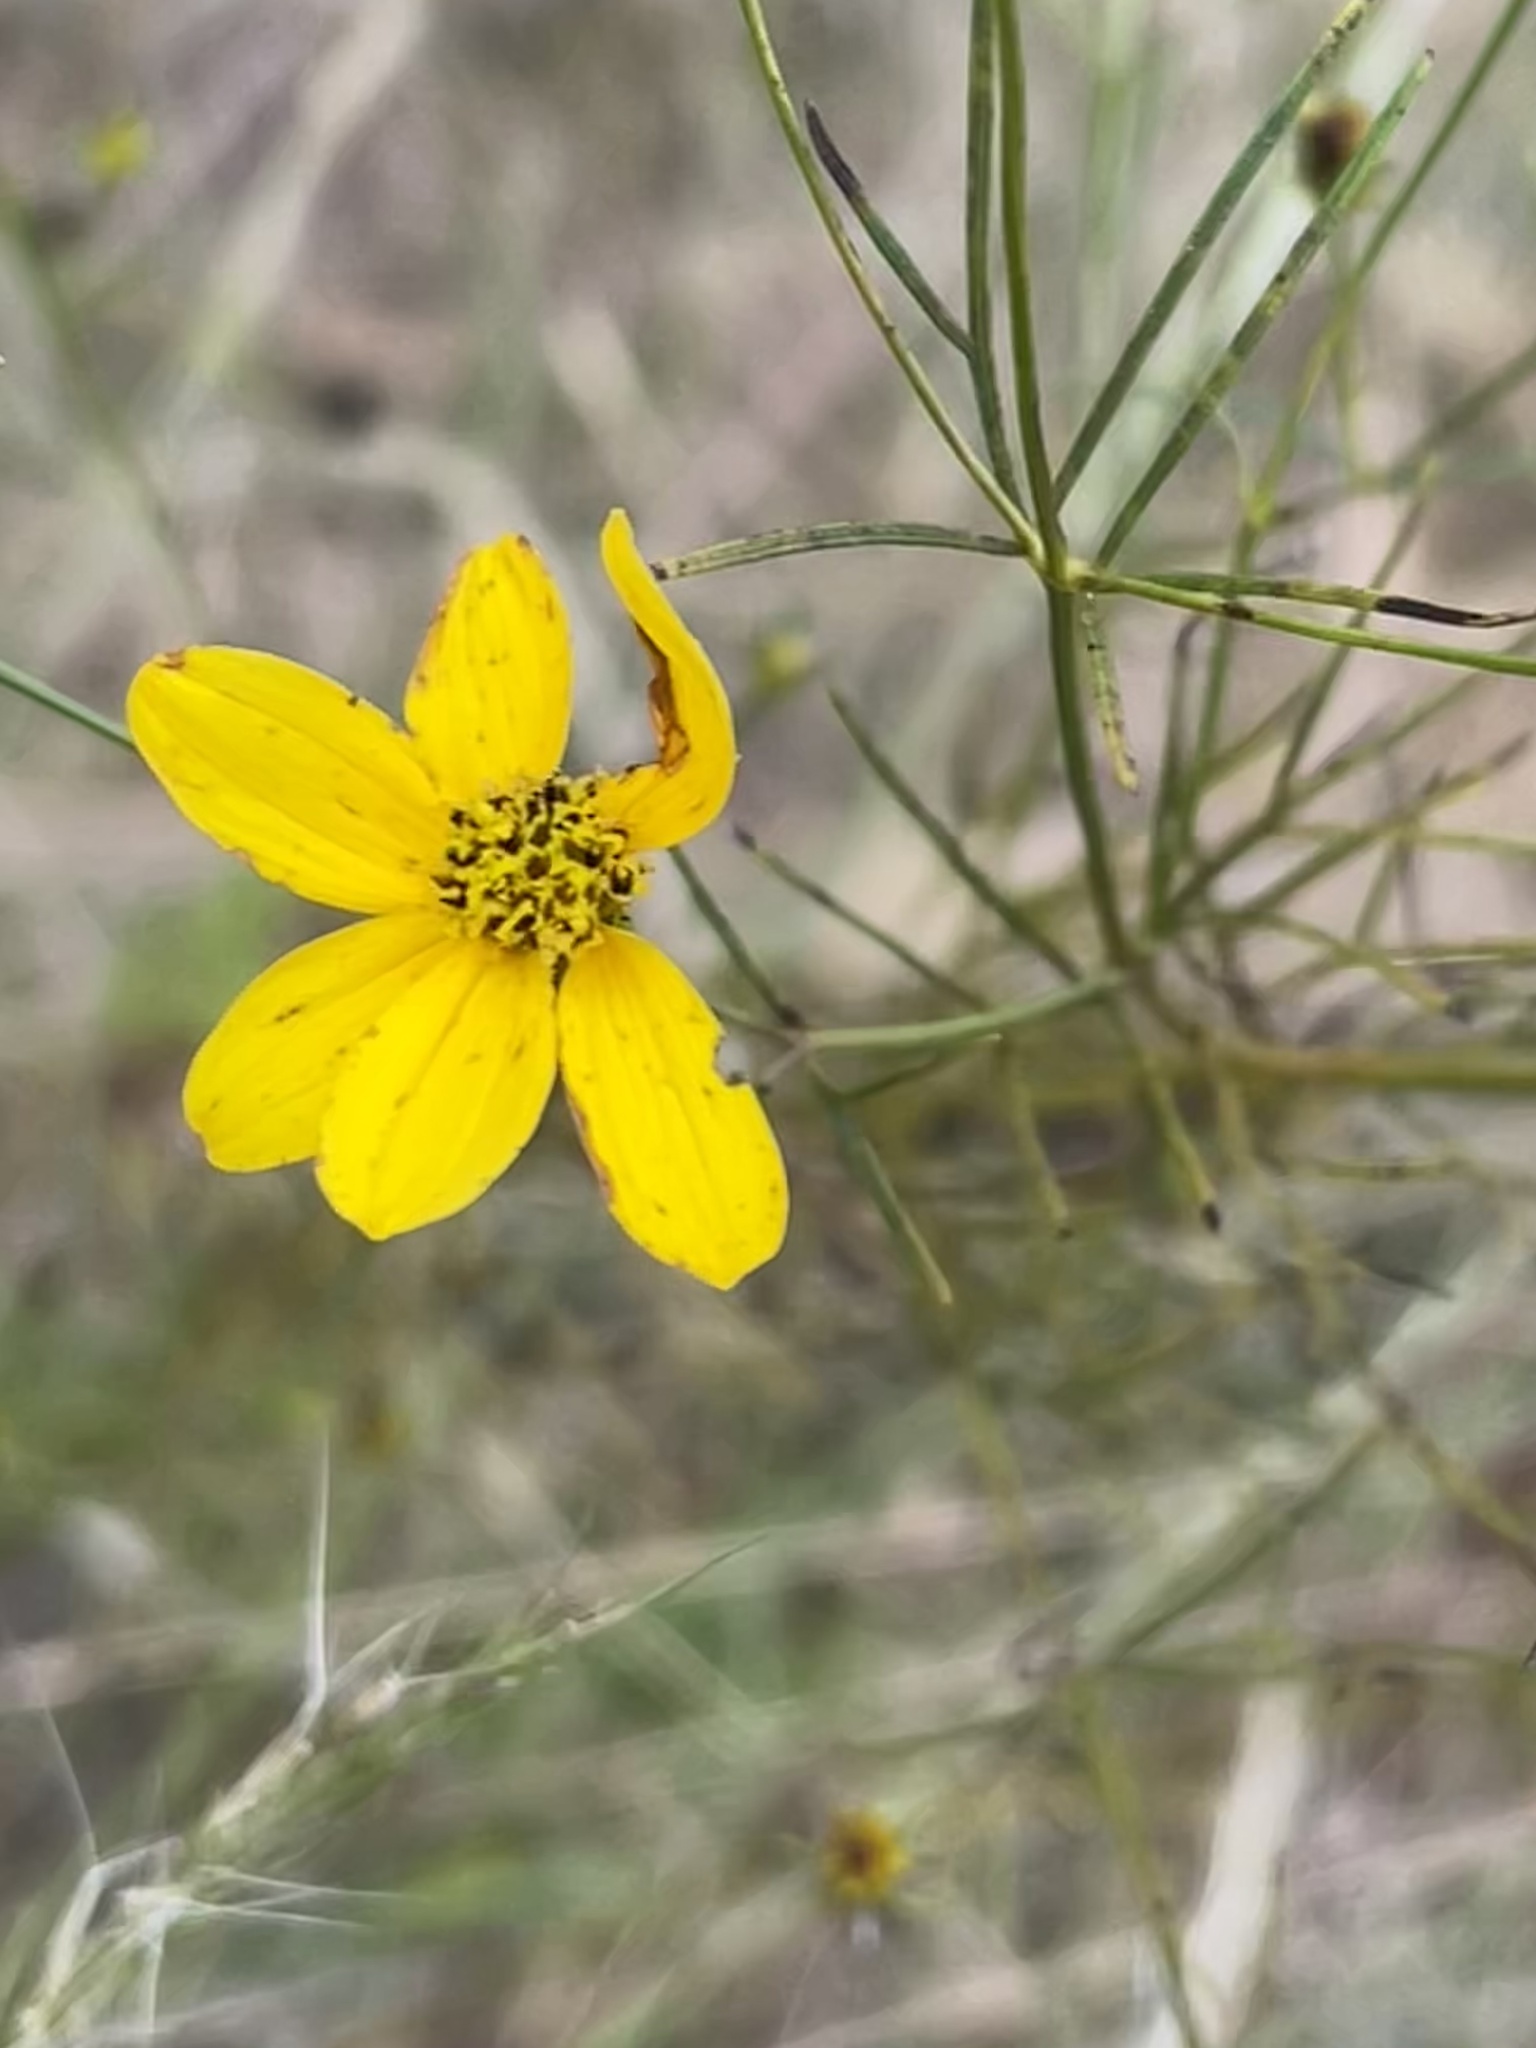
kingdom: Plantae
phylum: Tracheophyta
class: Magnoliopsida
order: Asterales
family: Asteraceae
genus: Coreopsis
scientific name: Coreopsis verticillata
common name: Whorled tickseed
